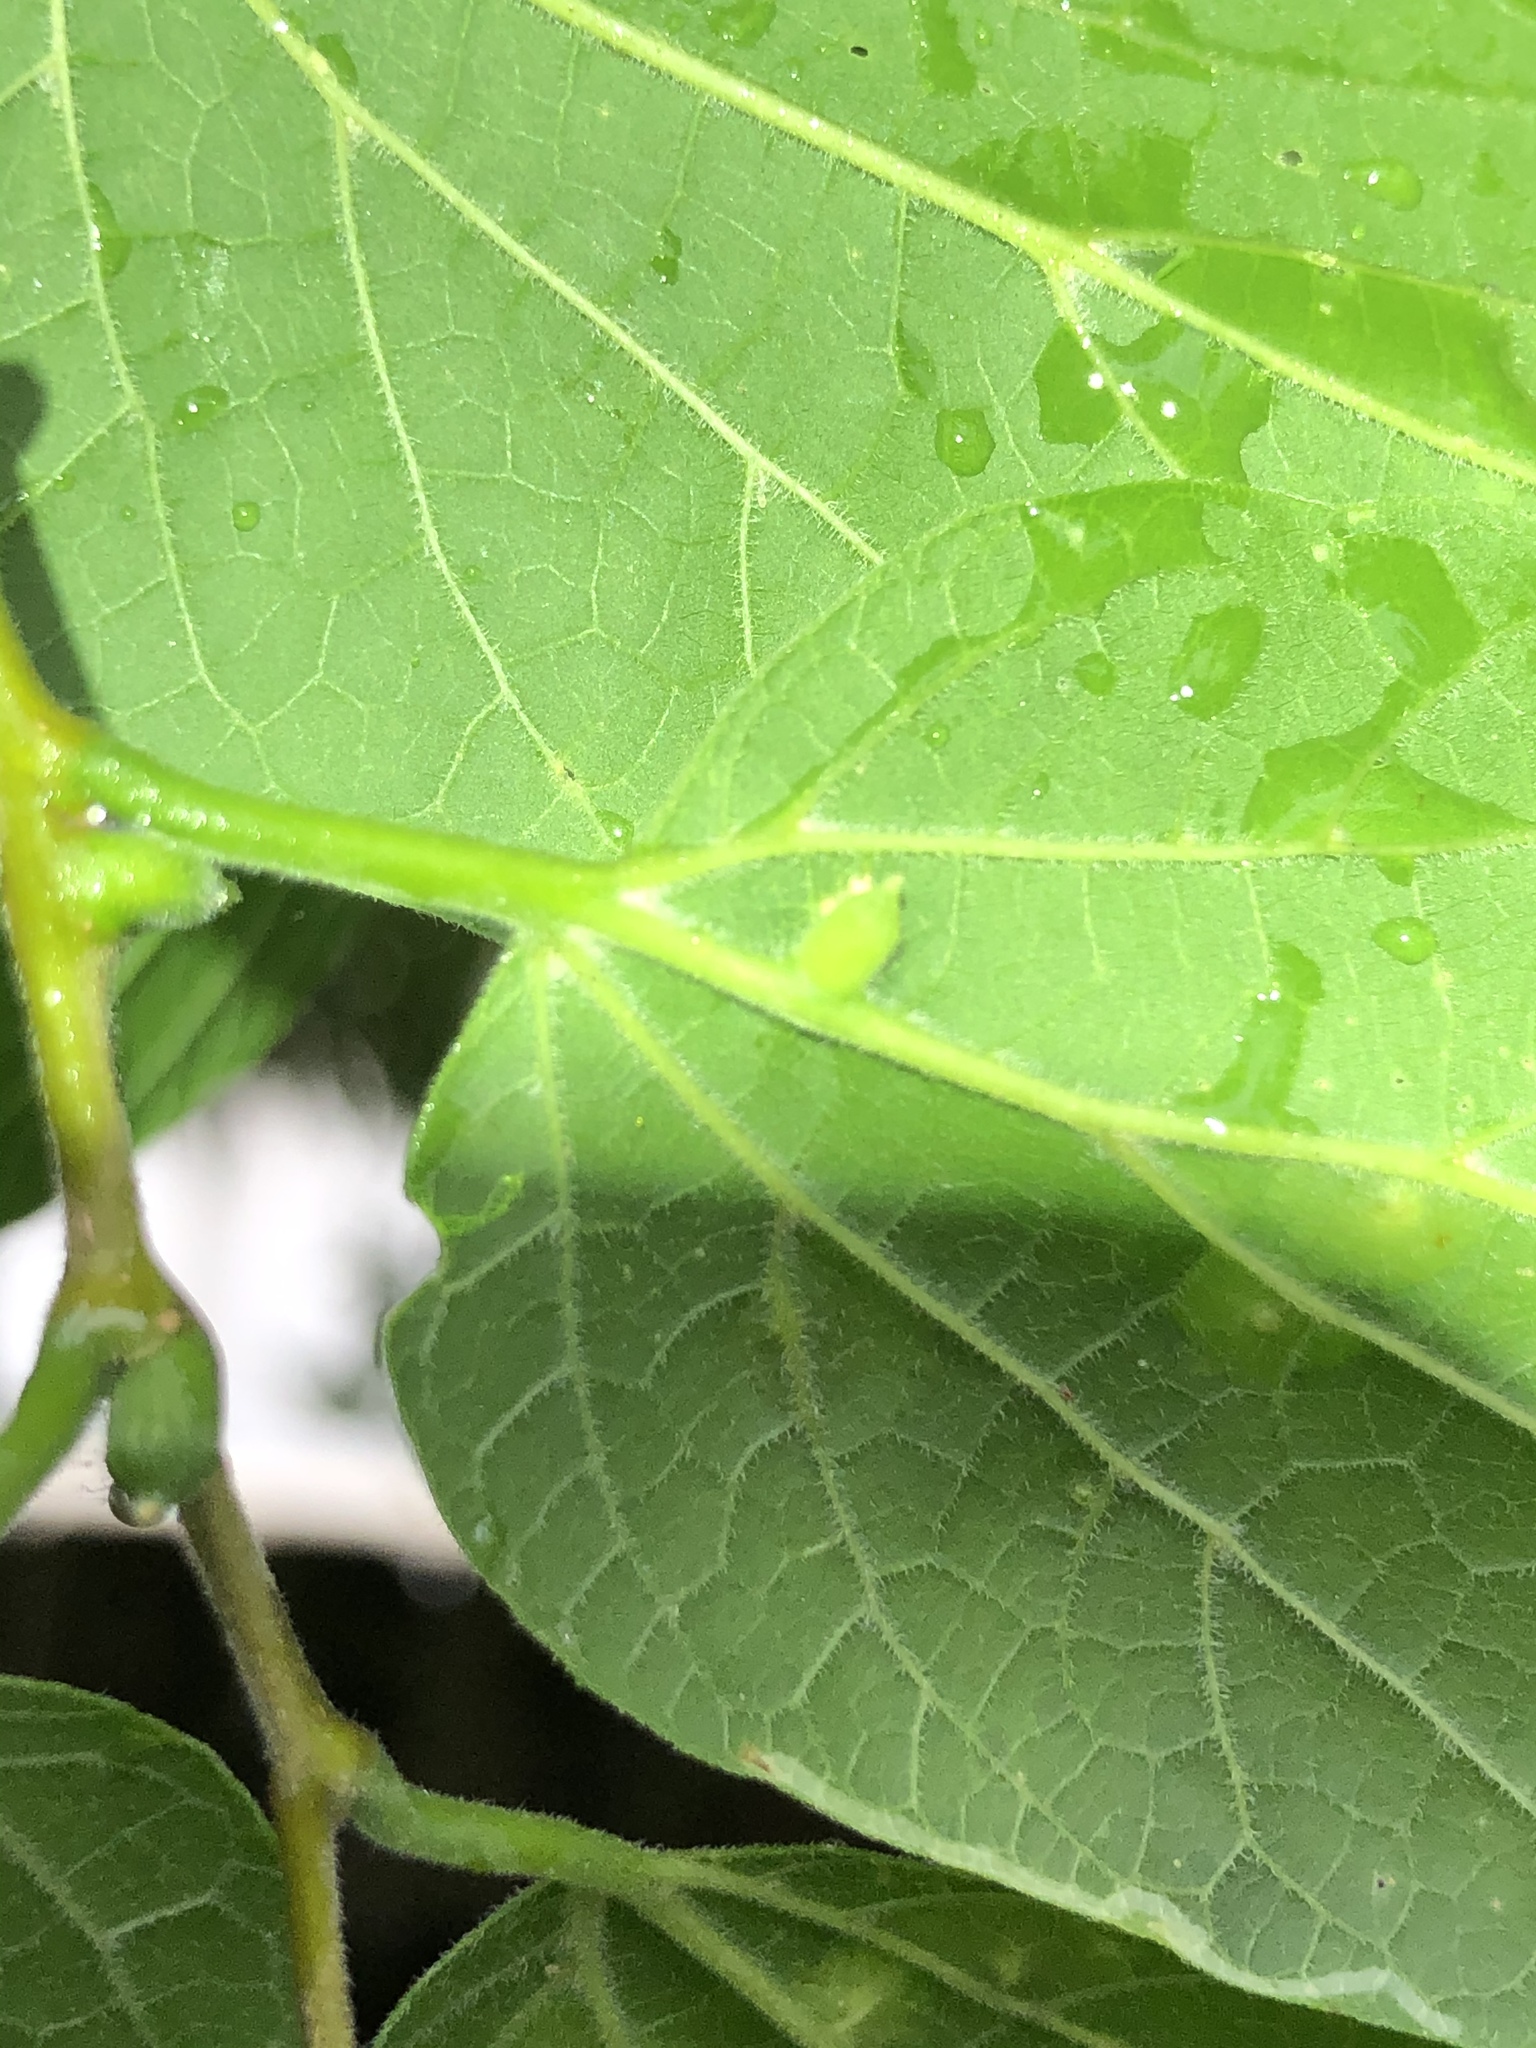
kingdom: Animalia
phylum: Arthropoda
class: Insecta
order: Diptera
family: Cecidomyiidae
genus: Celticecis
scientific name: Celticecis ramicola
